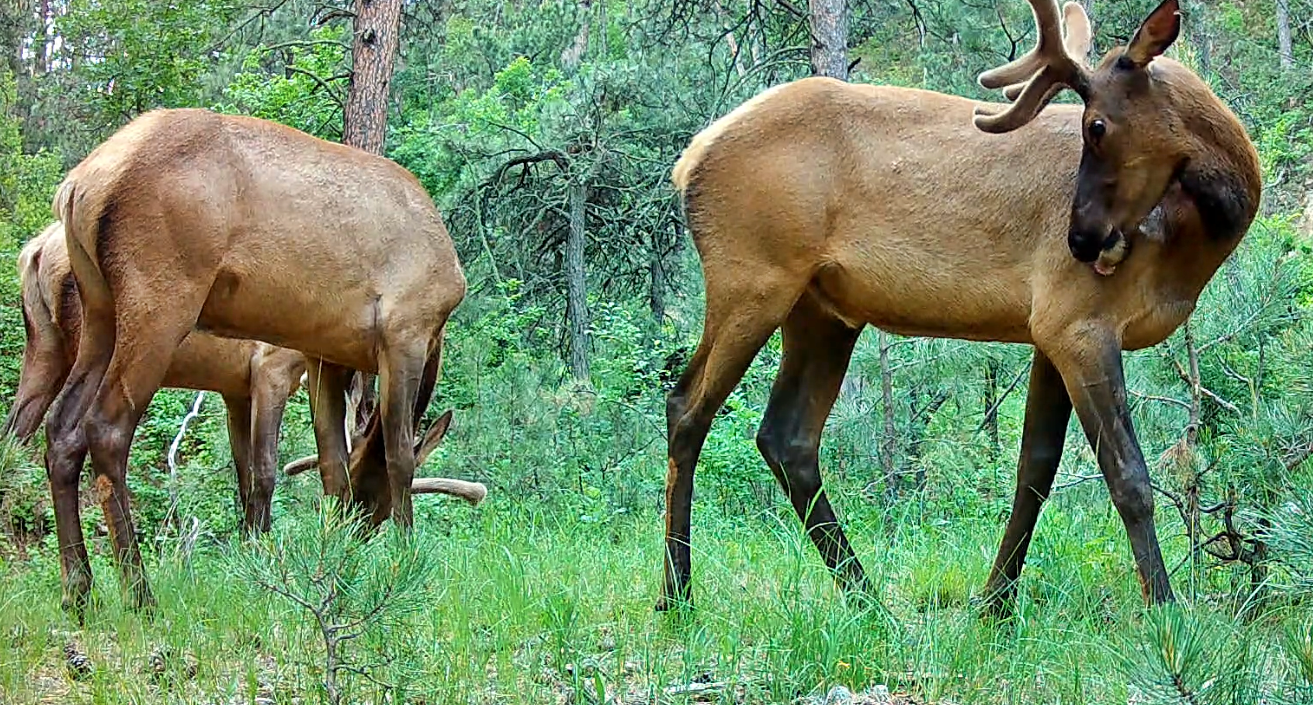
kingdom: Animalia
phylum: Chordata
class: Mammalia
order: Artiodactyla
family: Cervidae
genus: Cervus
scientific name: Cervus elaphus
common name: Red deer
